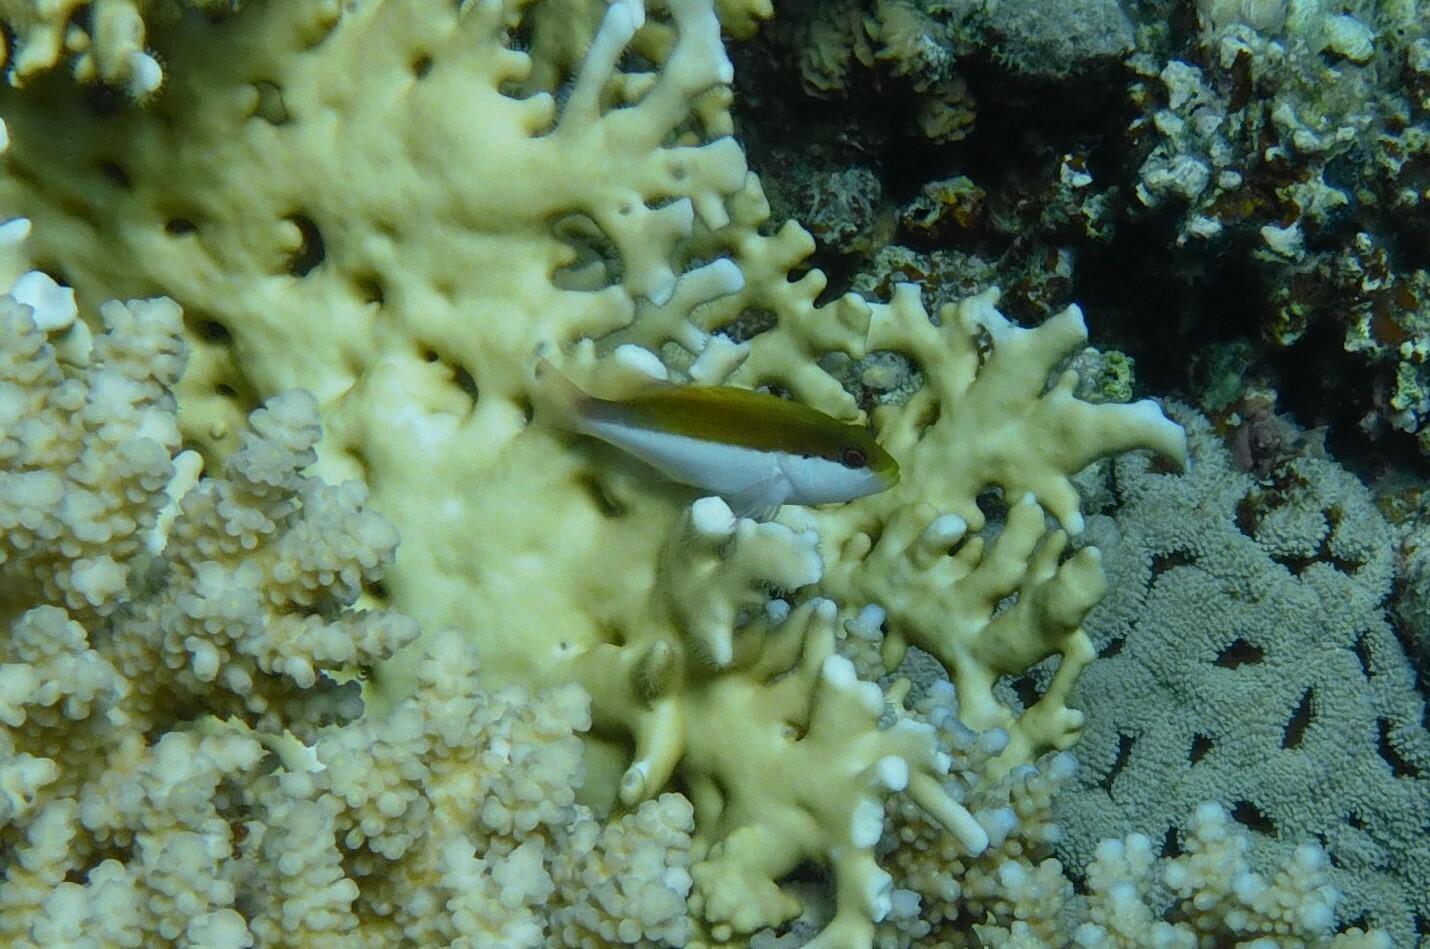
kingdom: Animalia
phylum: Chordata
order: Perciformes
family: Cirrhitidae
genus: Paracirrhites
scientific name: Paracirrhites forsteri
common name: Freckled hawkfish
